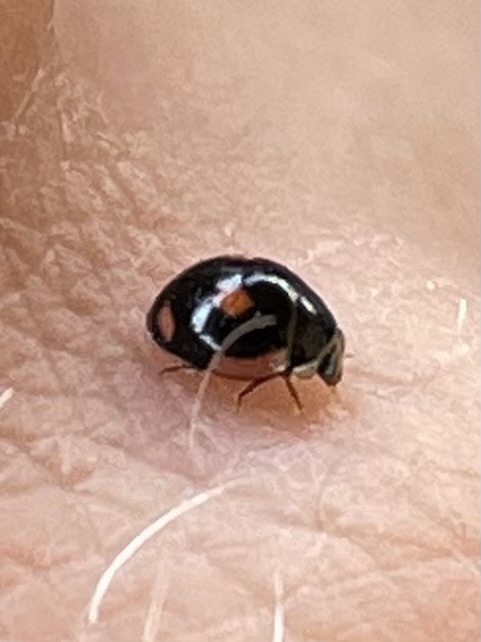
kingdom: Animalia
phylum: Arthropoda
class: Insecta
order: Coleoptera
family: Coccinellidae
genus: Hyperaspis
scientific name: Hyperaspis lateralis
